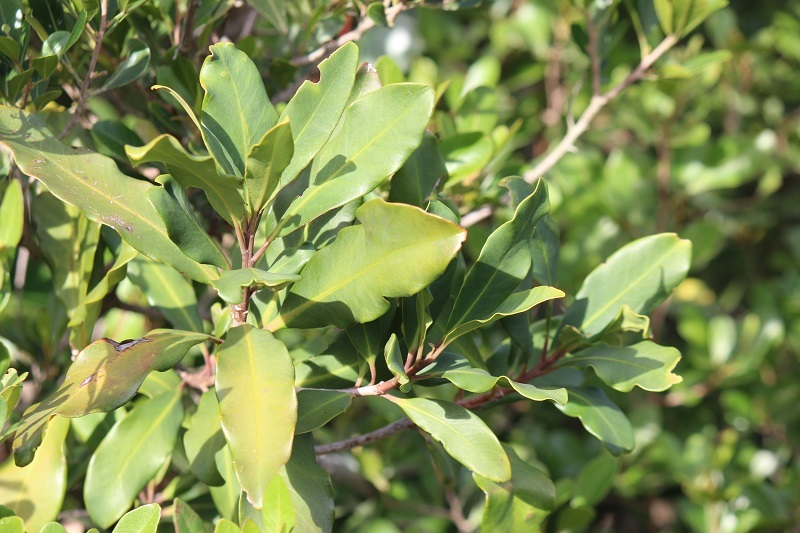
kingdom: Plantae
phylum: Tracheophyta
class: Magnoliopsida
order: Ericales
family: Primulaceae
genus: Myrsine
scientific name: Myrsine melanophloeos
